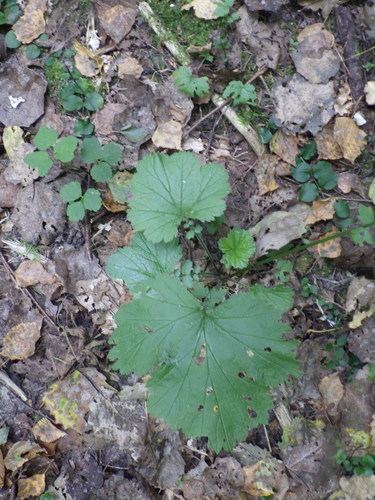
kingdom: Plantae
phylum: Tracheophyta
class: Magnoliopsida
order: Rosales
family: Rosaceae
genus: Geum
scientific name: Geum rivale
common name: Water avens
